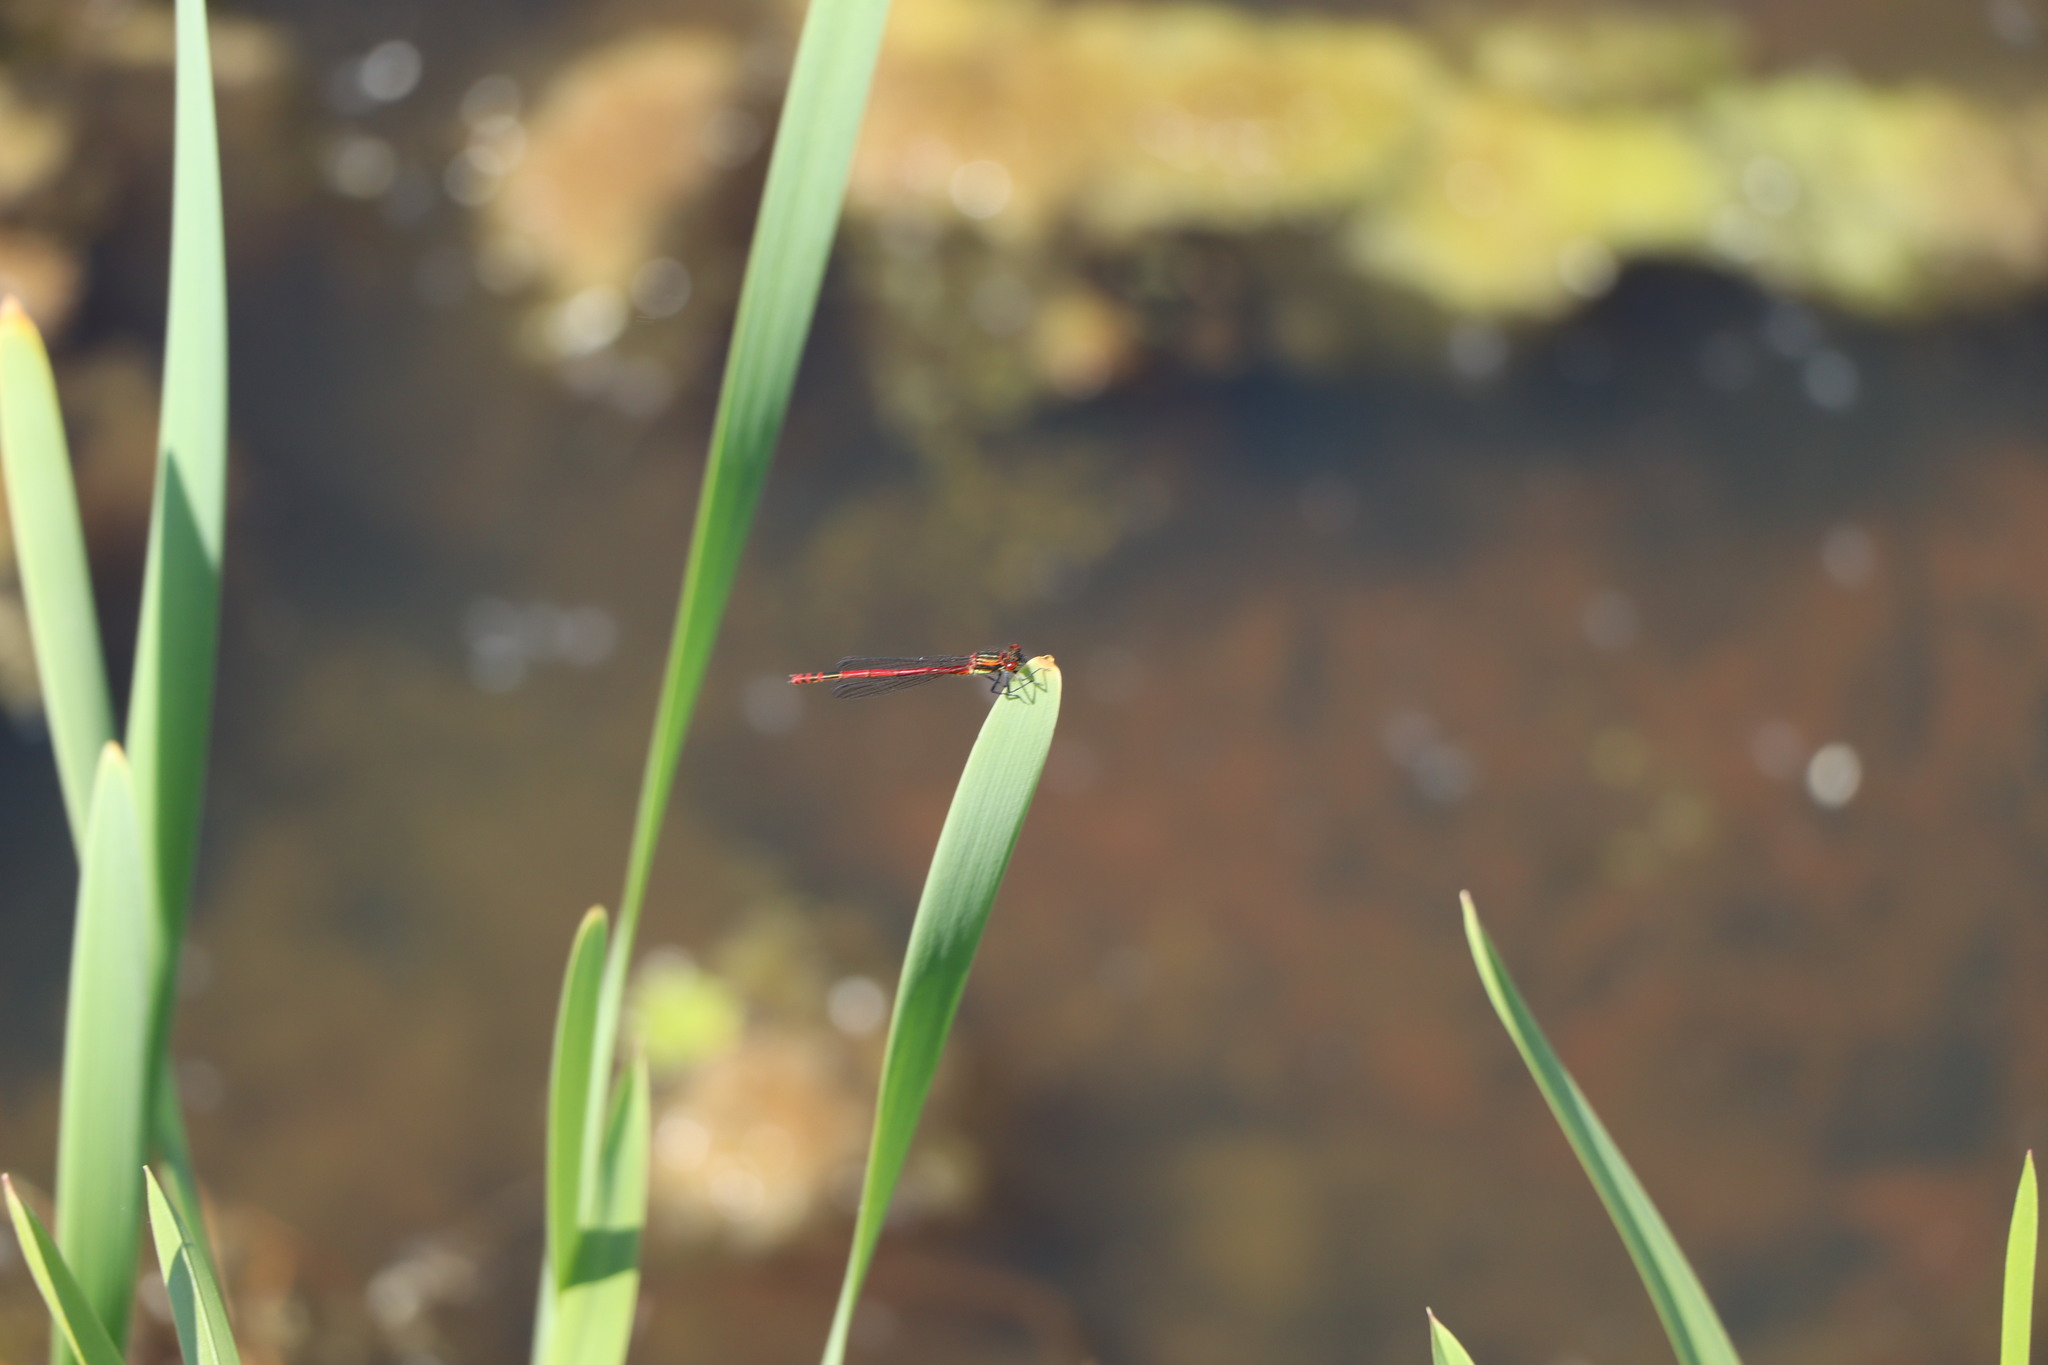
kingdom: Animalia
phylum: Arthropoda
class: Insecta
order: Odonata
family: Coenagrionidae
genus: Pyrrhosoma
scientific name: Pyrrhosoma nymphula
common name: Large red damsel
